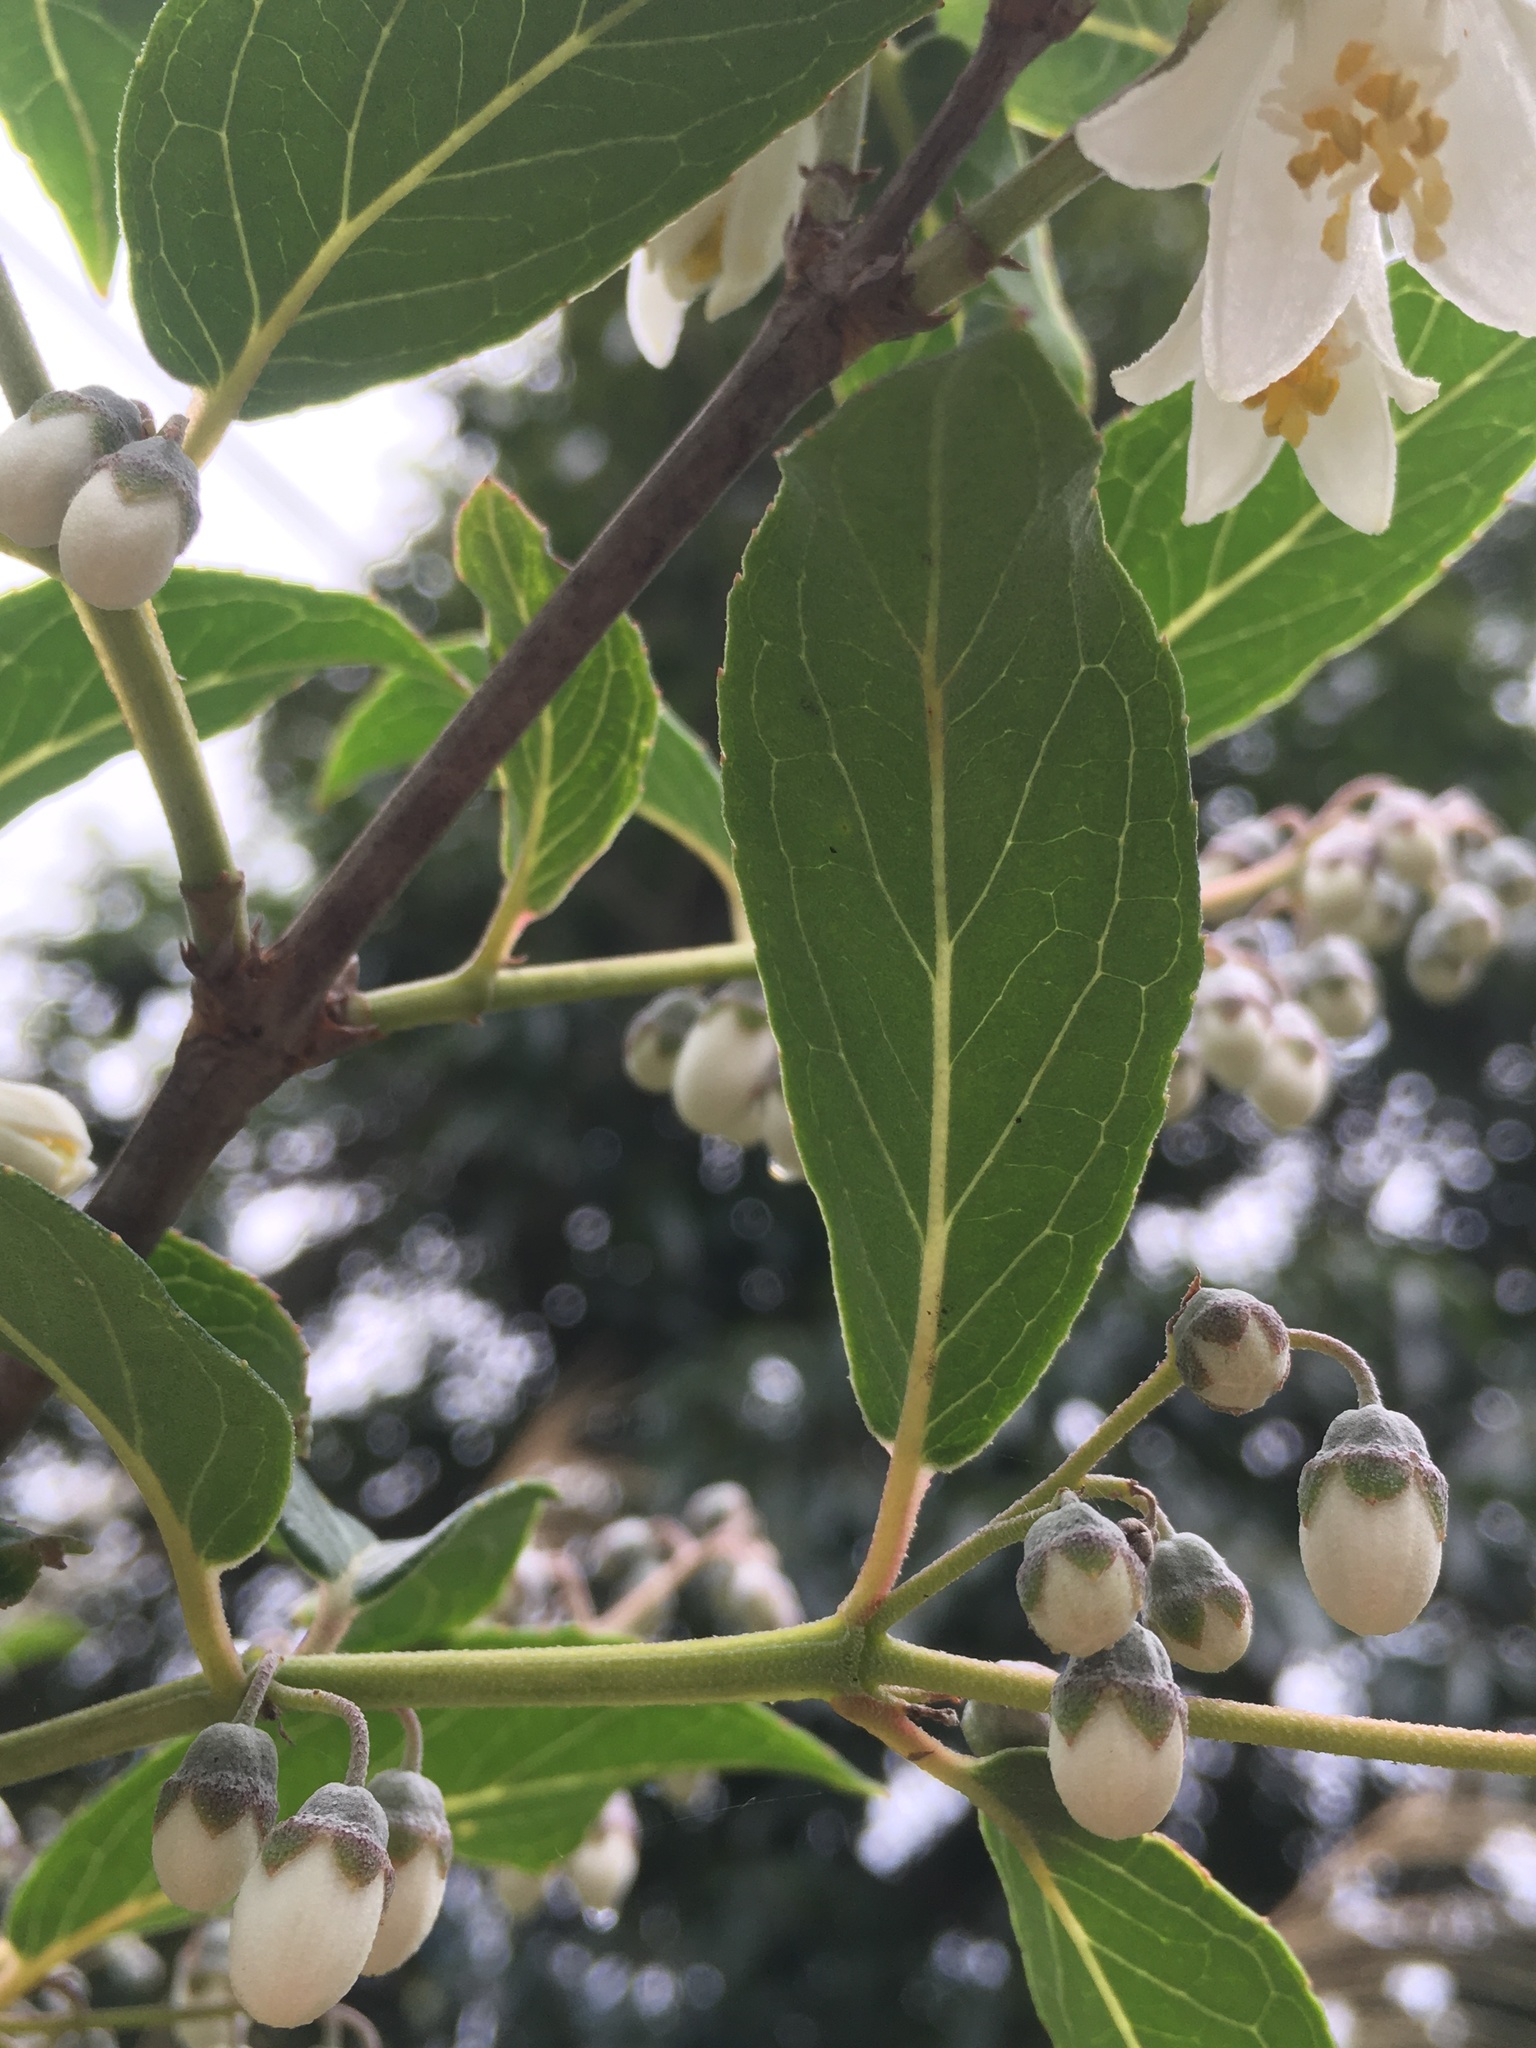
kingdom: Plantae
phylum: Tracheophyta
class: Magnoliopsida
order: Cornales
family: Hydrangeaceae
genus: Deutzia
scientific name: Deutzia pulchra
